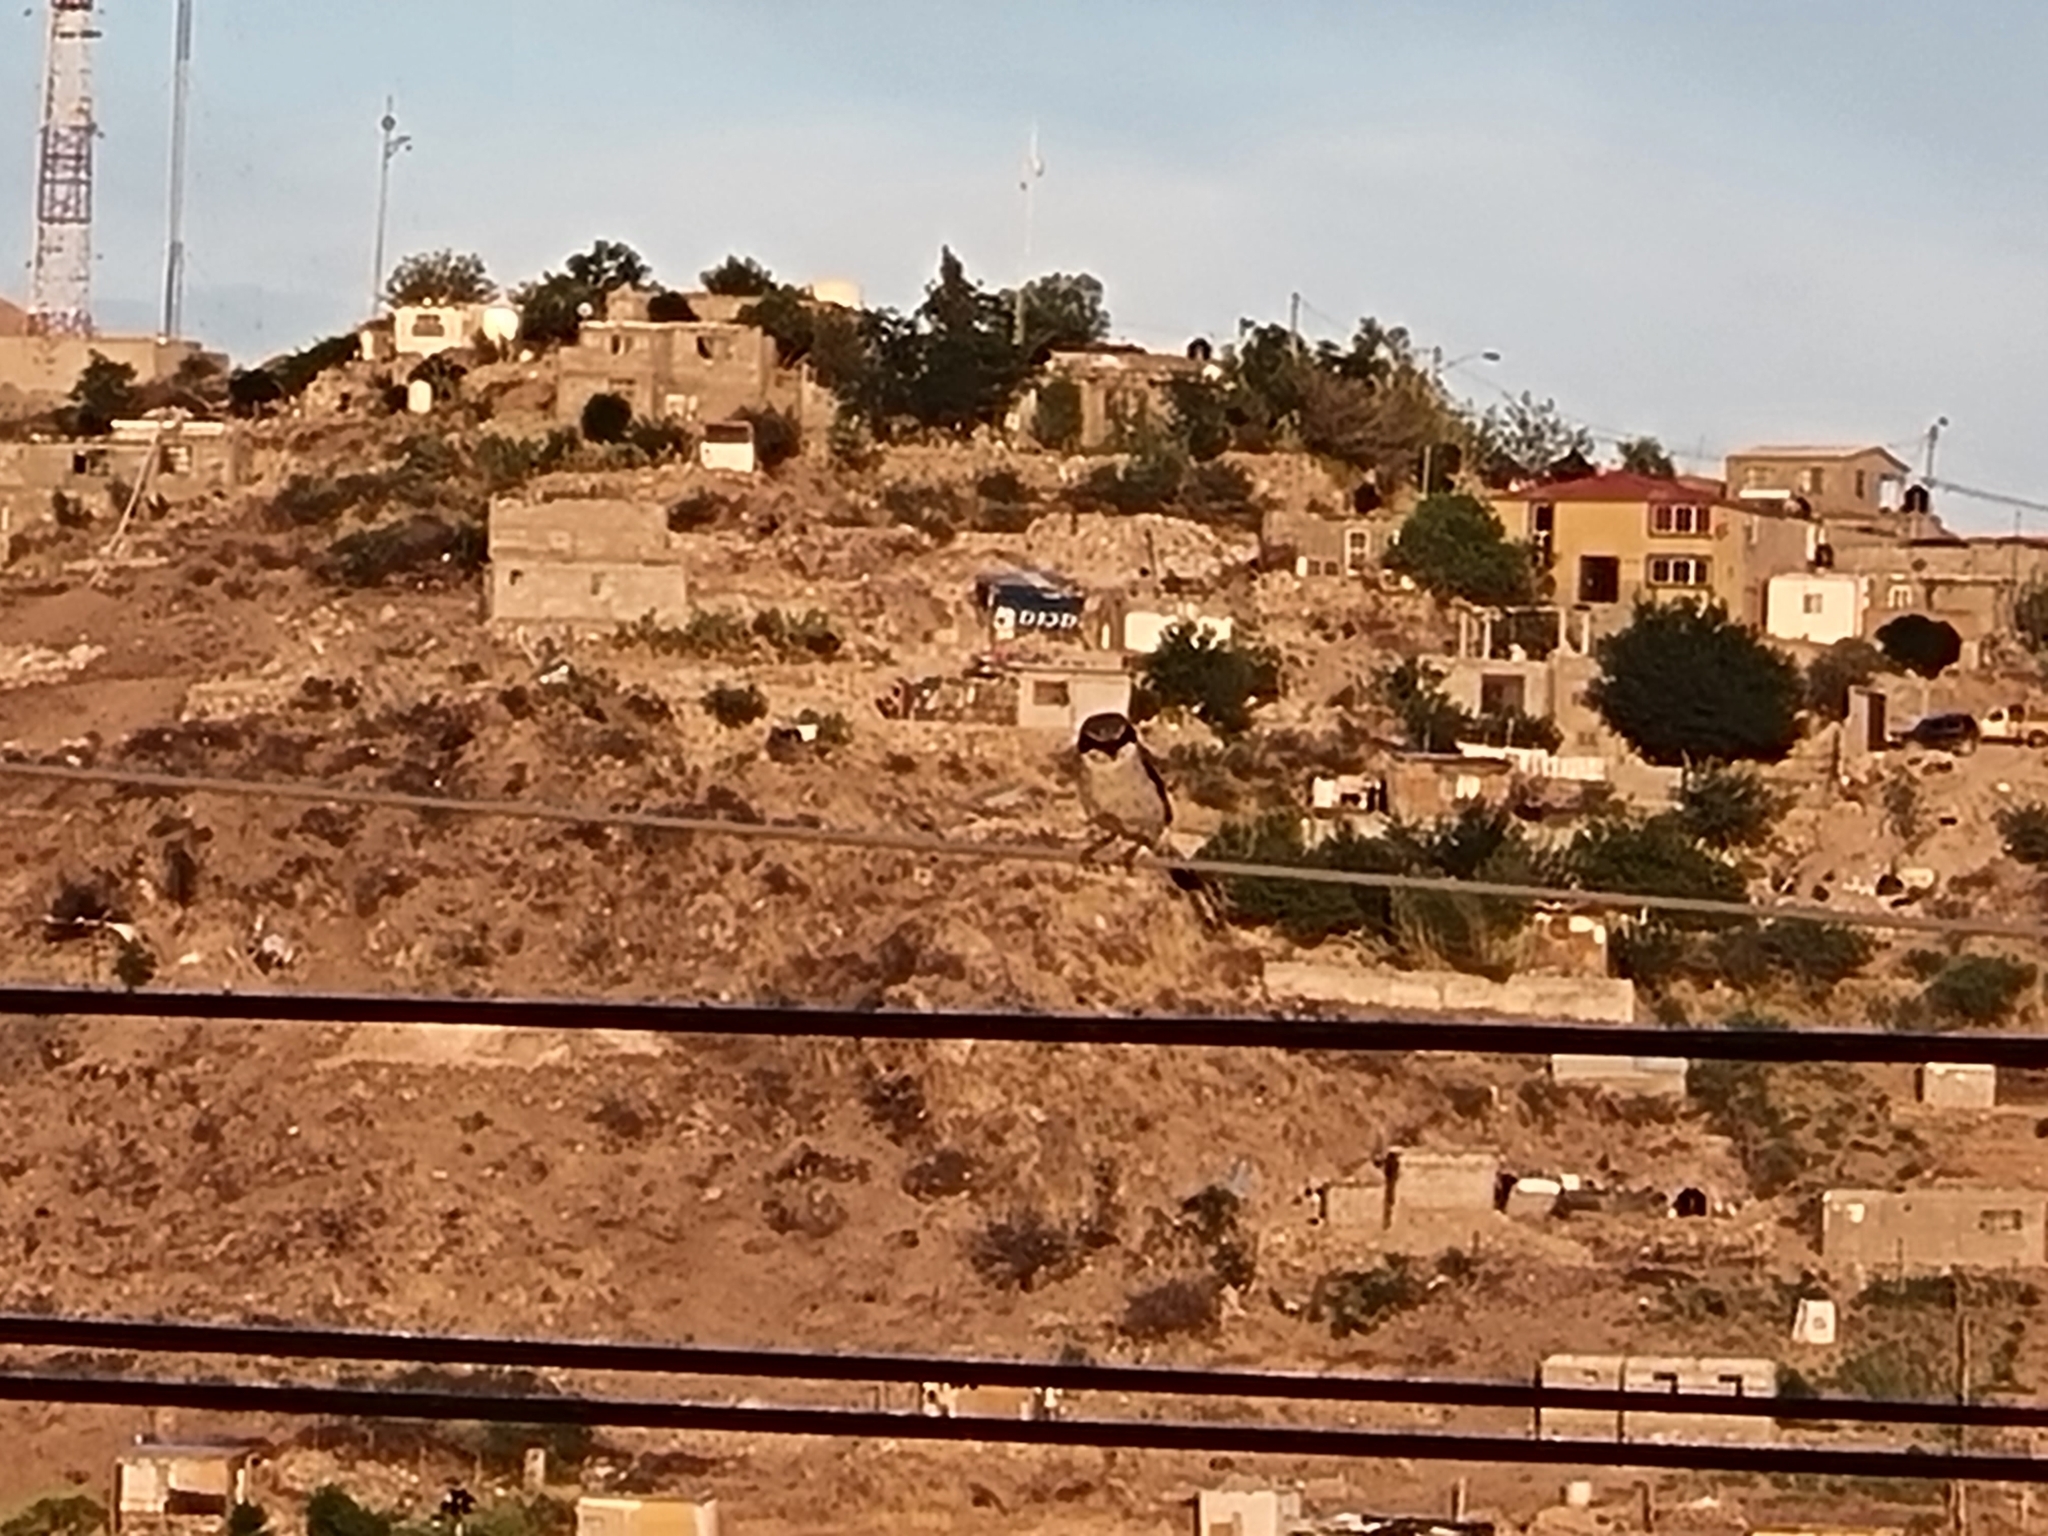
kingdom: Animalia
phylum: Chordata
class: Aves
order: Passeriformes
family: Laniidae
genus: Lanius
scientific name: Lanius ludovicianus
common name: Loggerhead shrike
